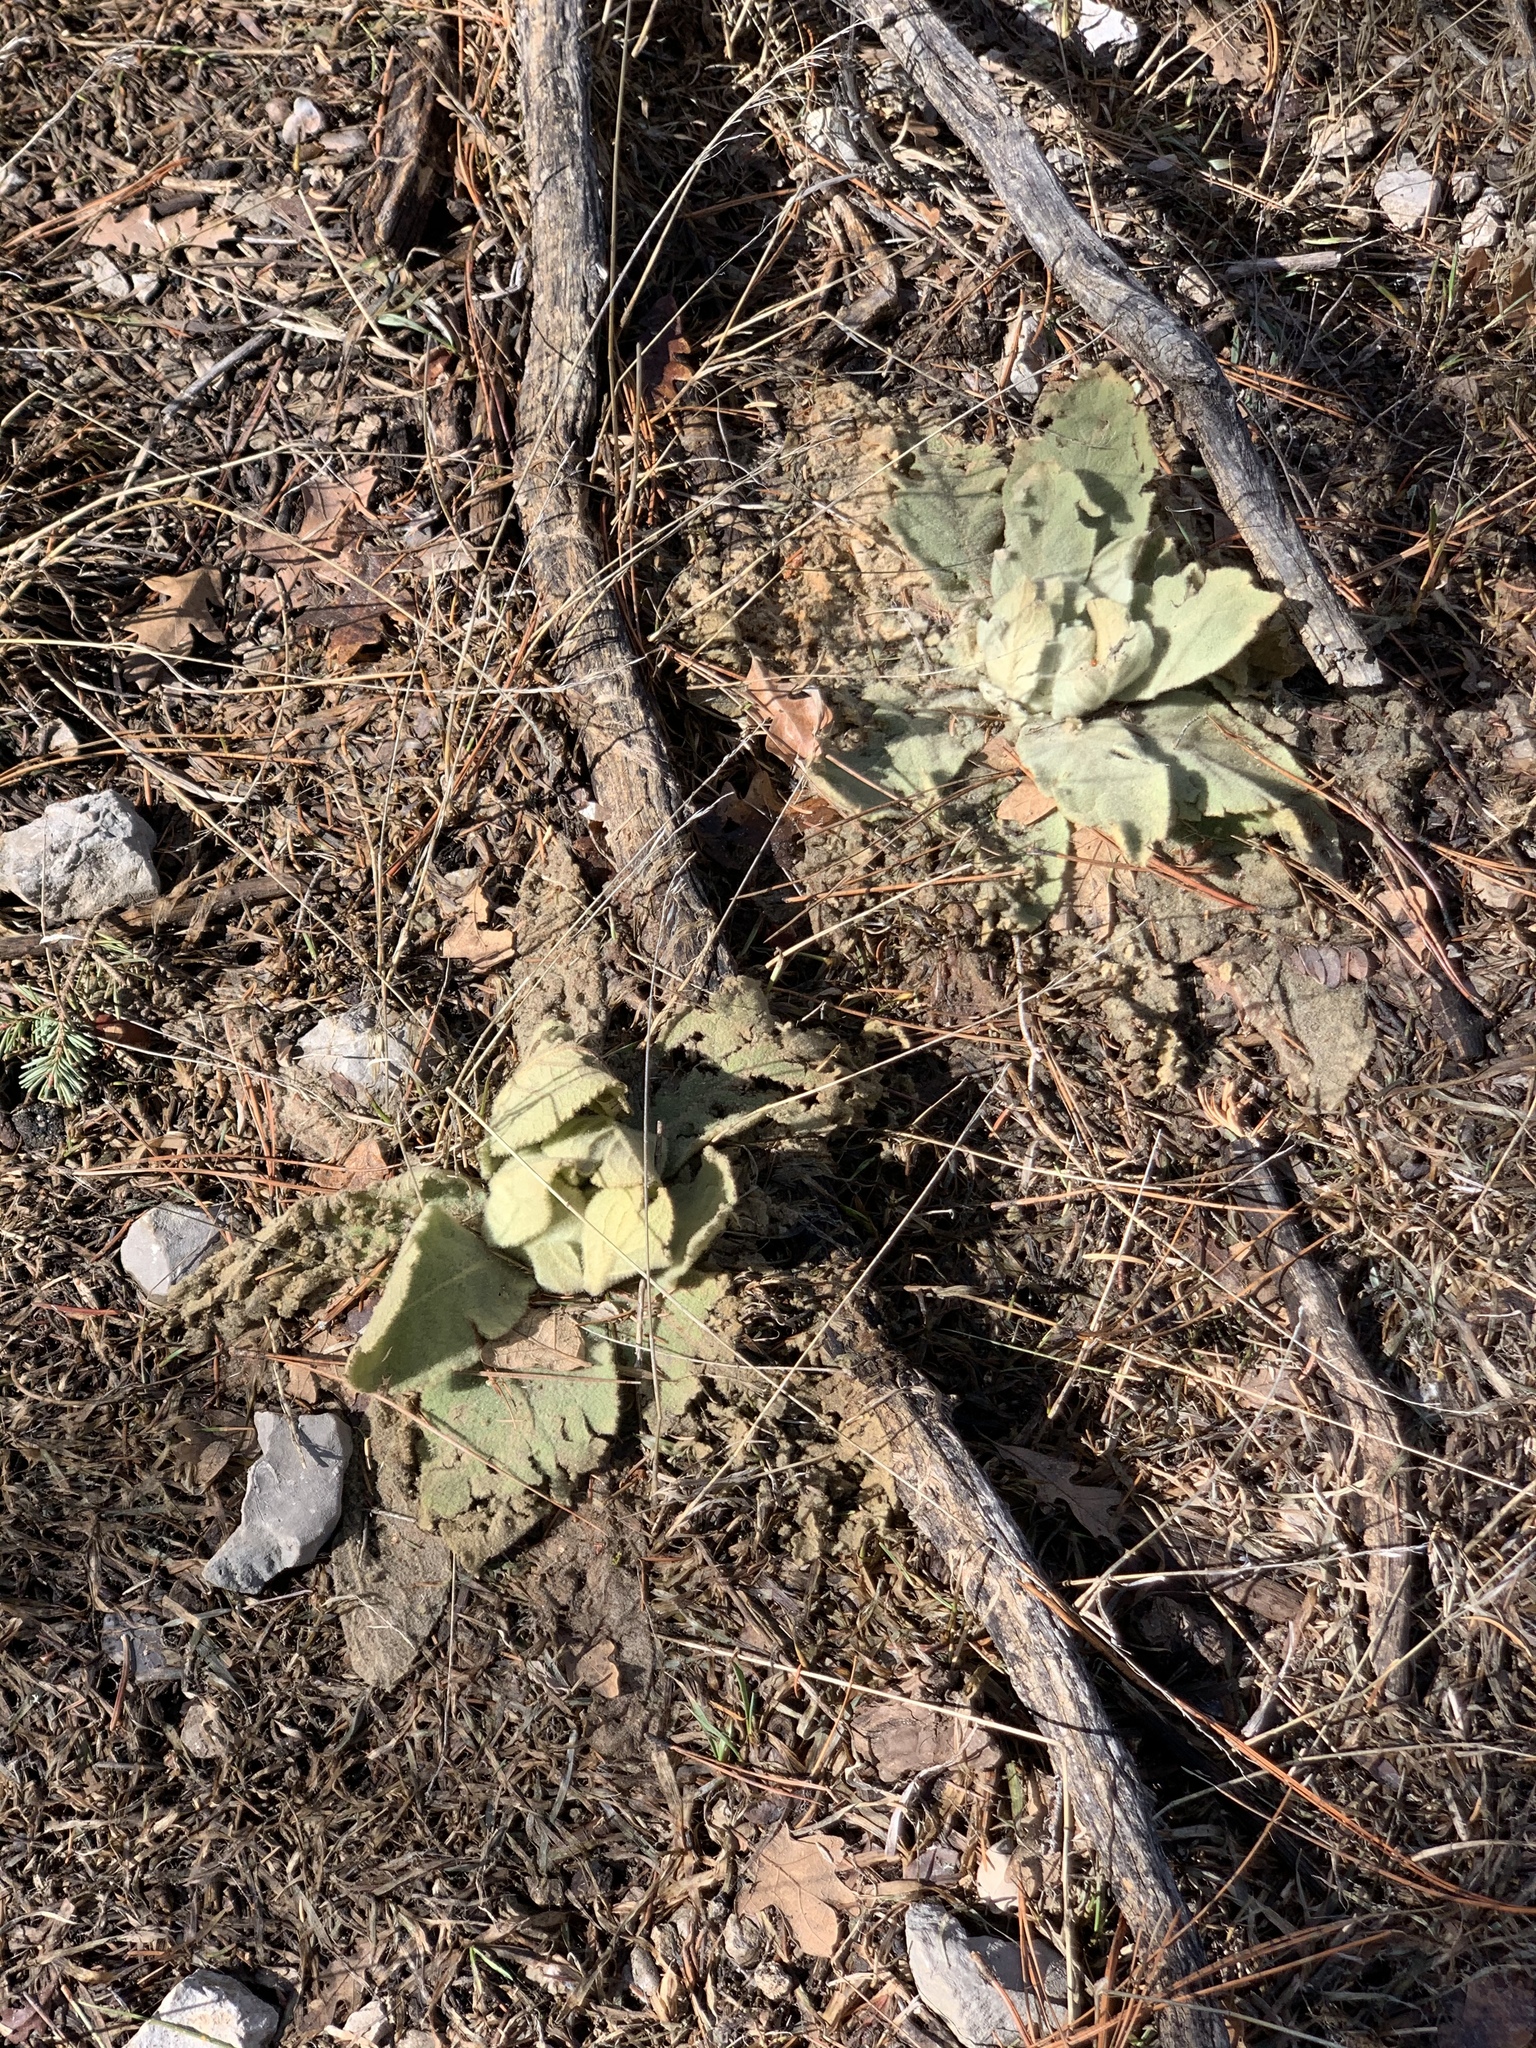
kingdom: Plantae
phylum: Tracheophyta
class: Magnoliopsida
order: Lamiales
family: Scrophulariaceae
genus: Verbascum
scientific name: Verbascum thapsus
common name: Common mullein
